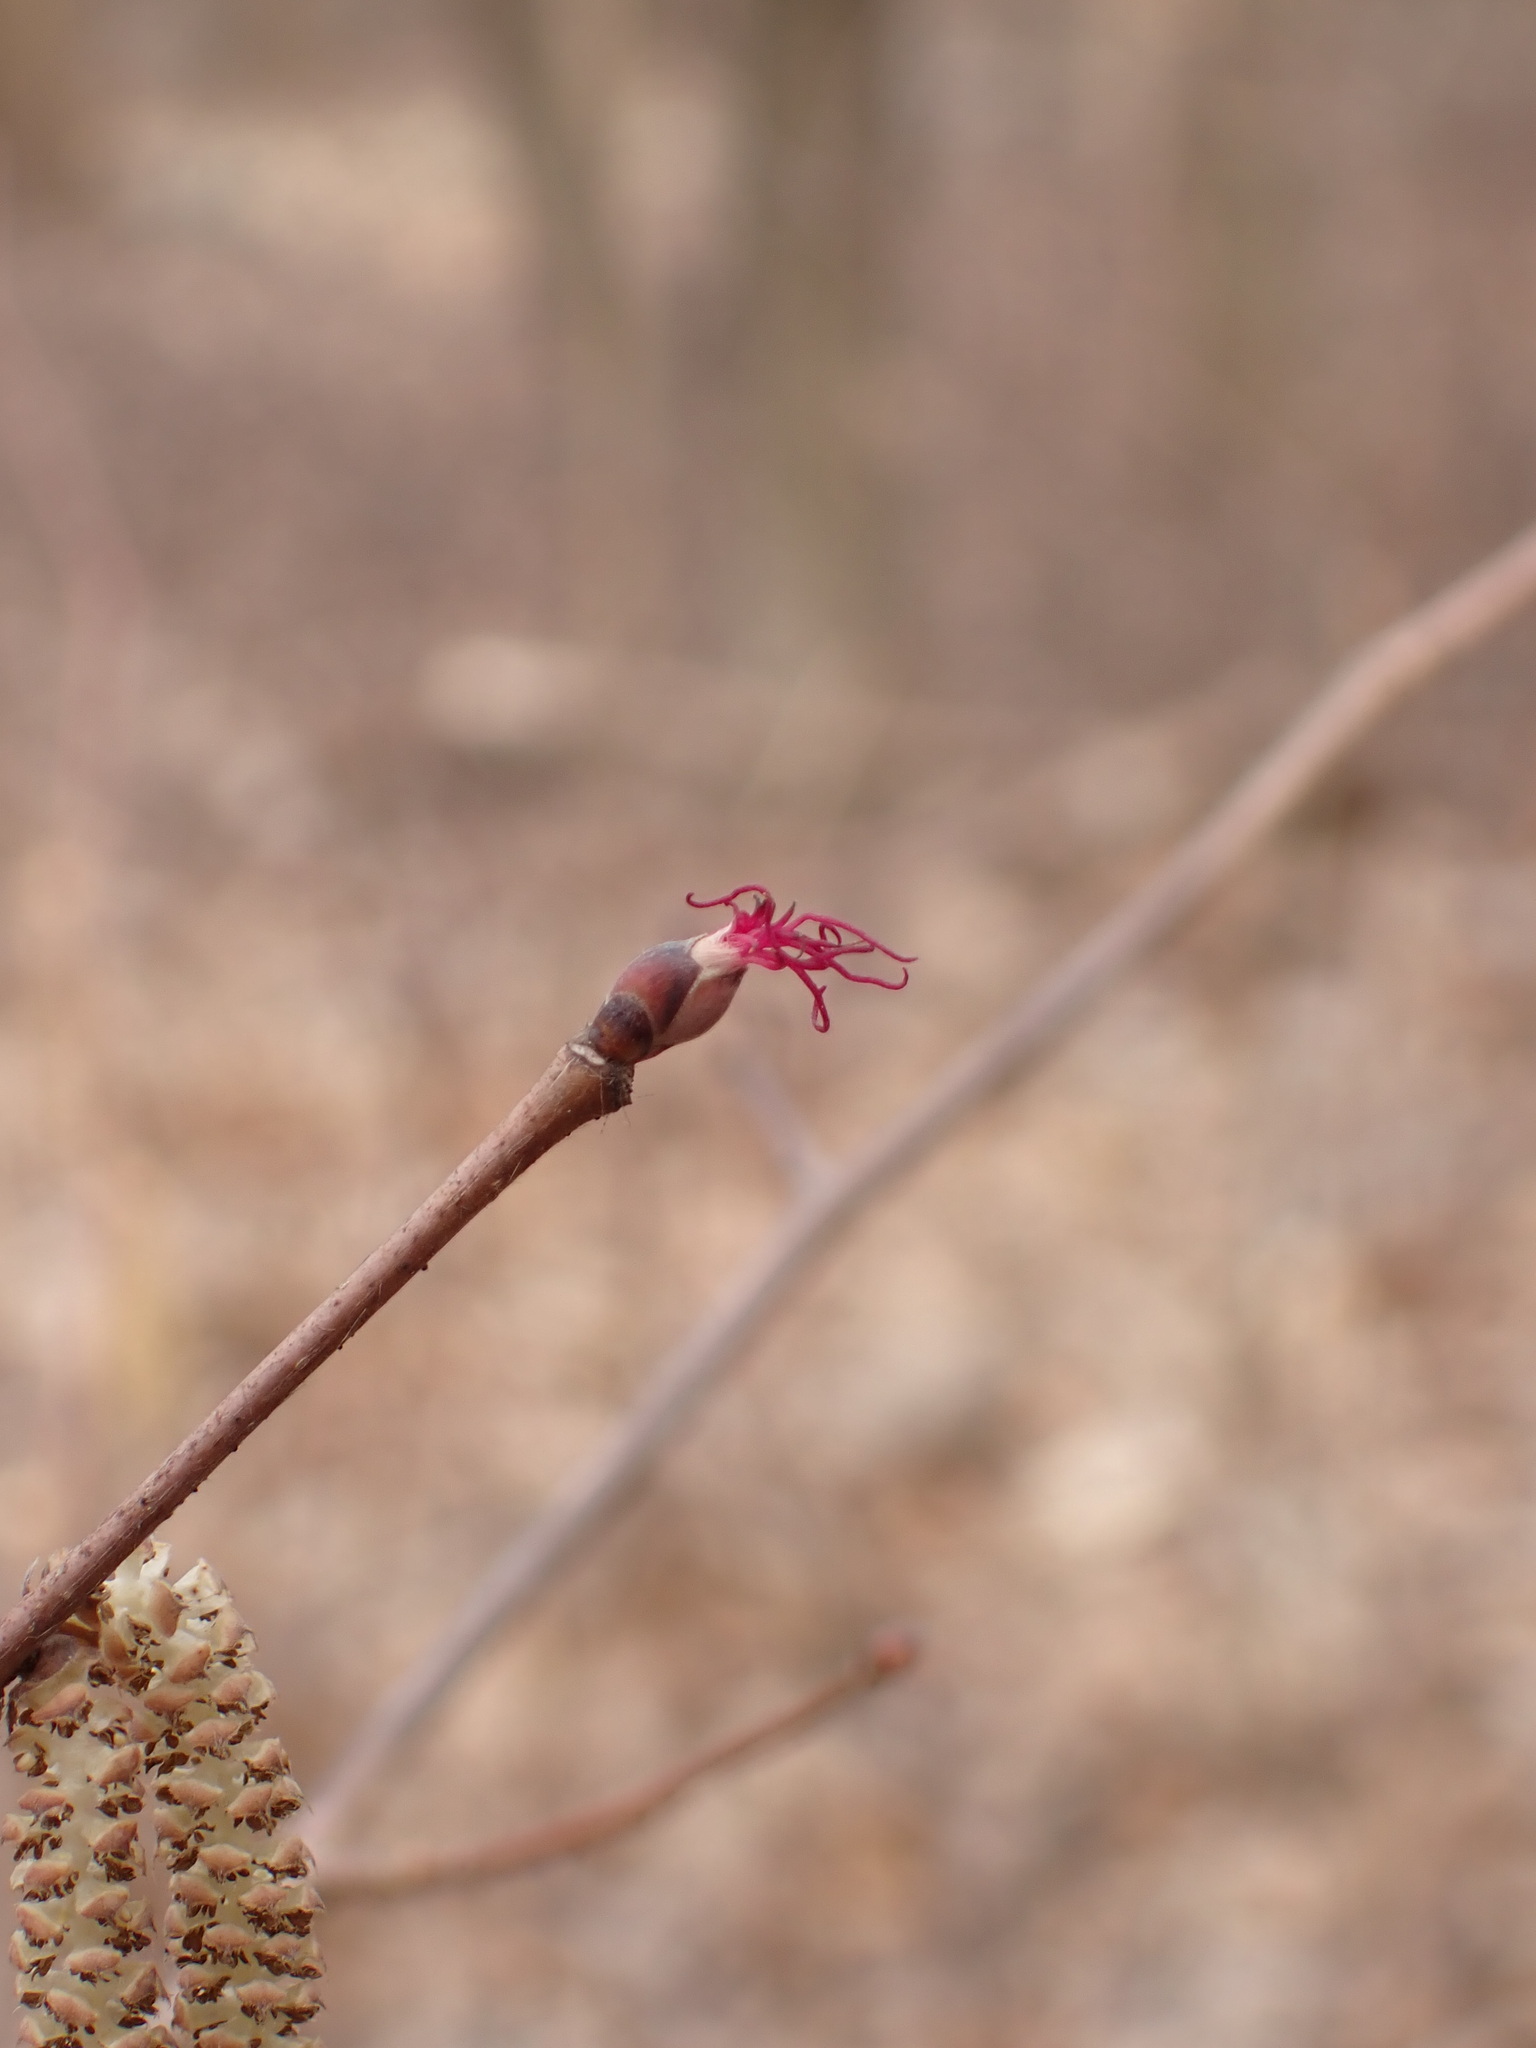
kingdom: Plantae
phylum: Tracheophyta
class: Magnoliopsida
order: Fagales
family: Betulaceae
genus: Corylus
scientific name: Corylus cornuta
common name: Beaked hazel
